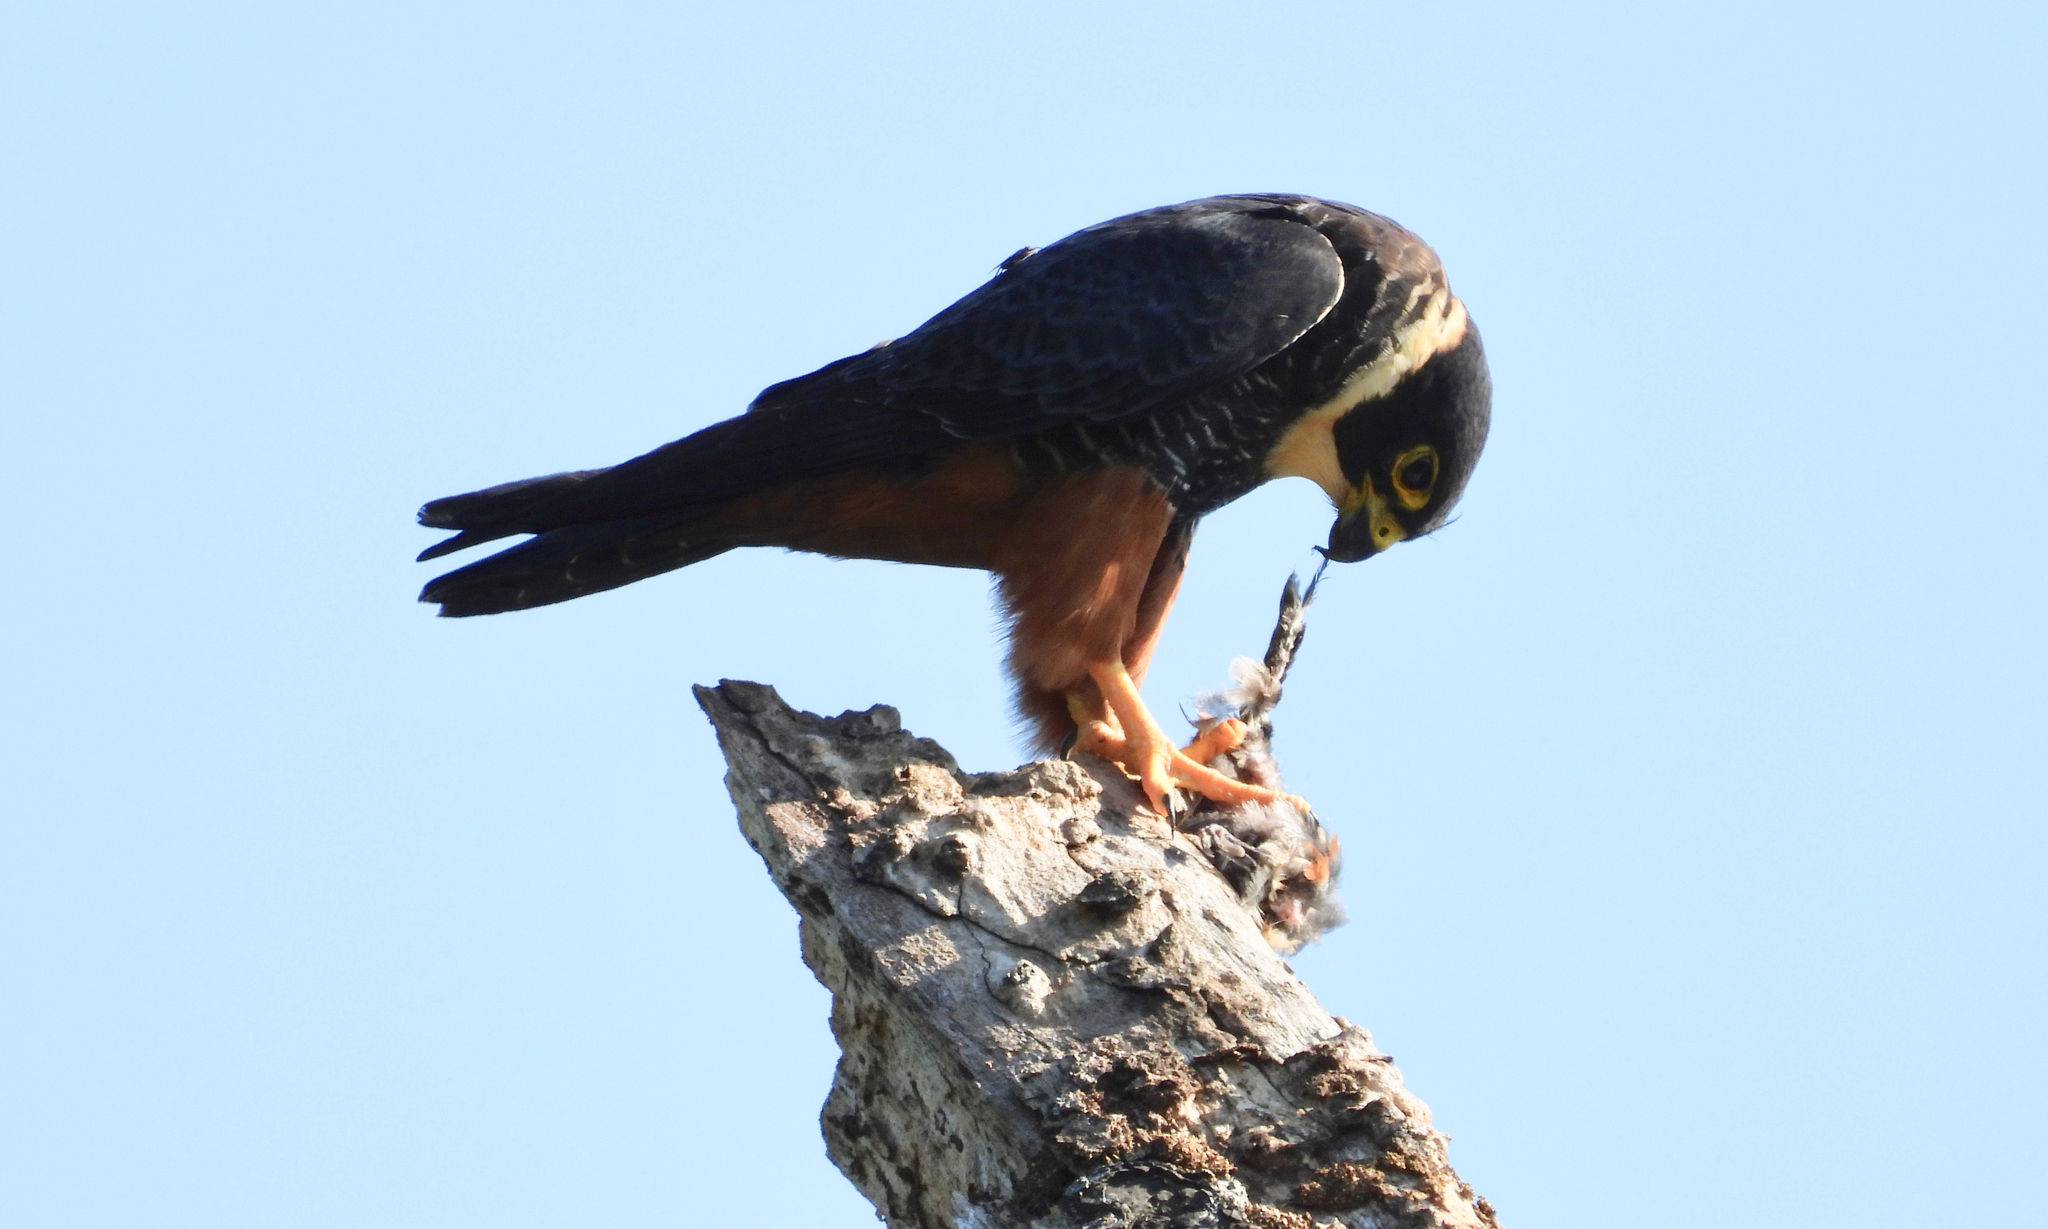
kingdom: Animalia
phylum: Chordata
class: Aves
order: Falconiformes
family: Falconidae
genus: Falco
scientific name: Falco rufigularis
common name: Bat falcon
